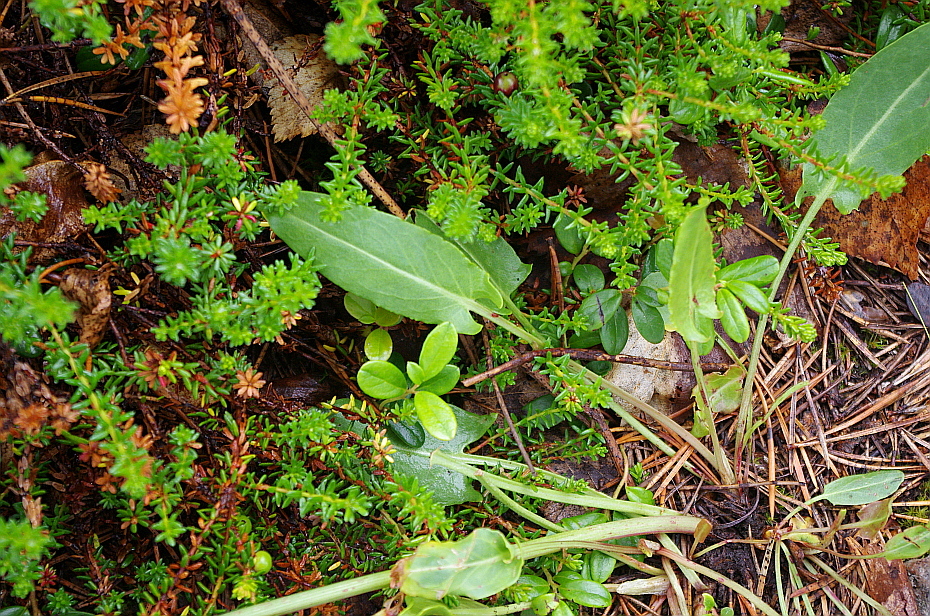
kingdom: Plantae
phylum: Tracheophyta
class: Magnoliopsida
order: Caryophyllales
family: Polygonaceae
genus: Rumex
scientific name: Rumex acetosa
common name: Garden sorrel
